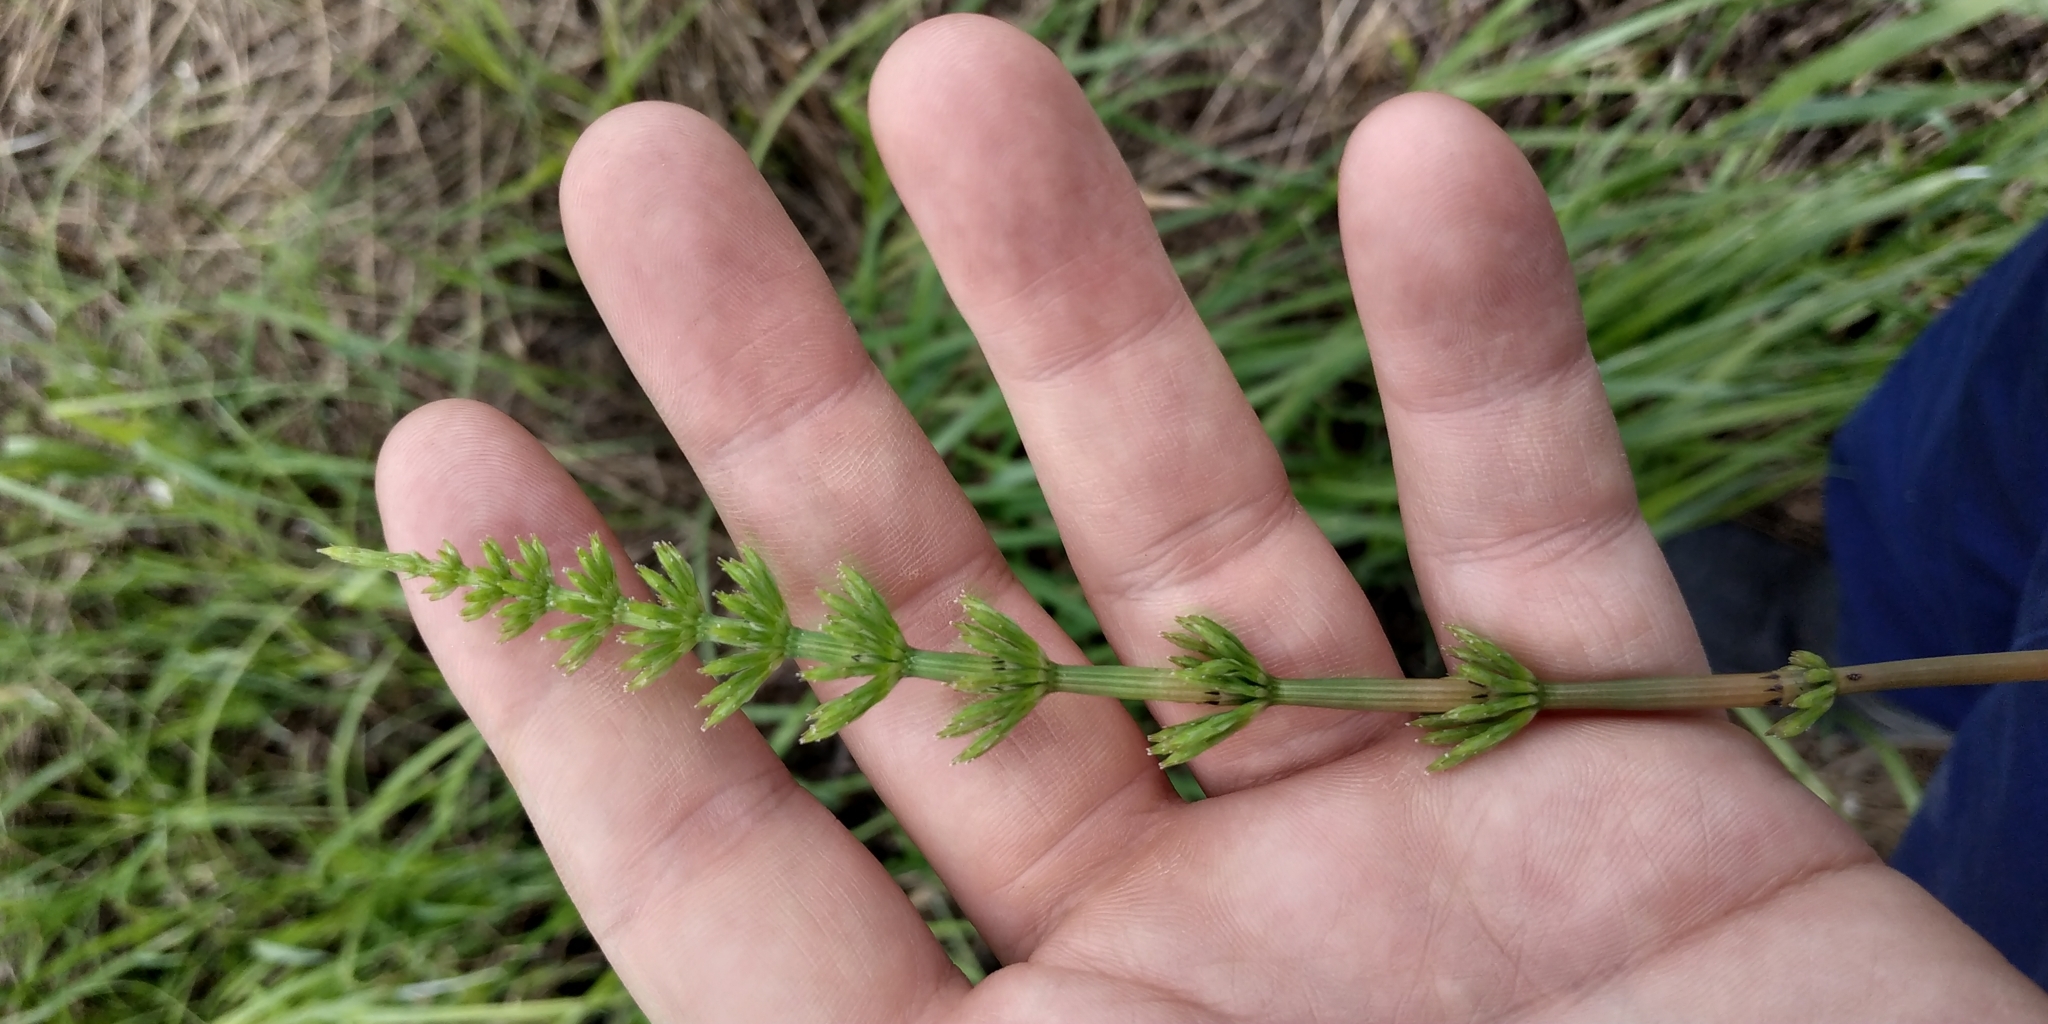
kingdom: Plantae
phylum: Tracheophyta
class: Polypodiopsida
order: Equisetales
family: Equisetaceae
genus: Equisetum
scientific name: Equisetum arvense
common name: Field horsetail
